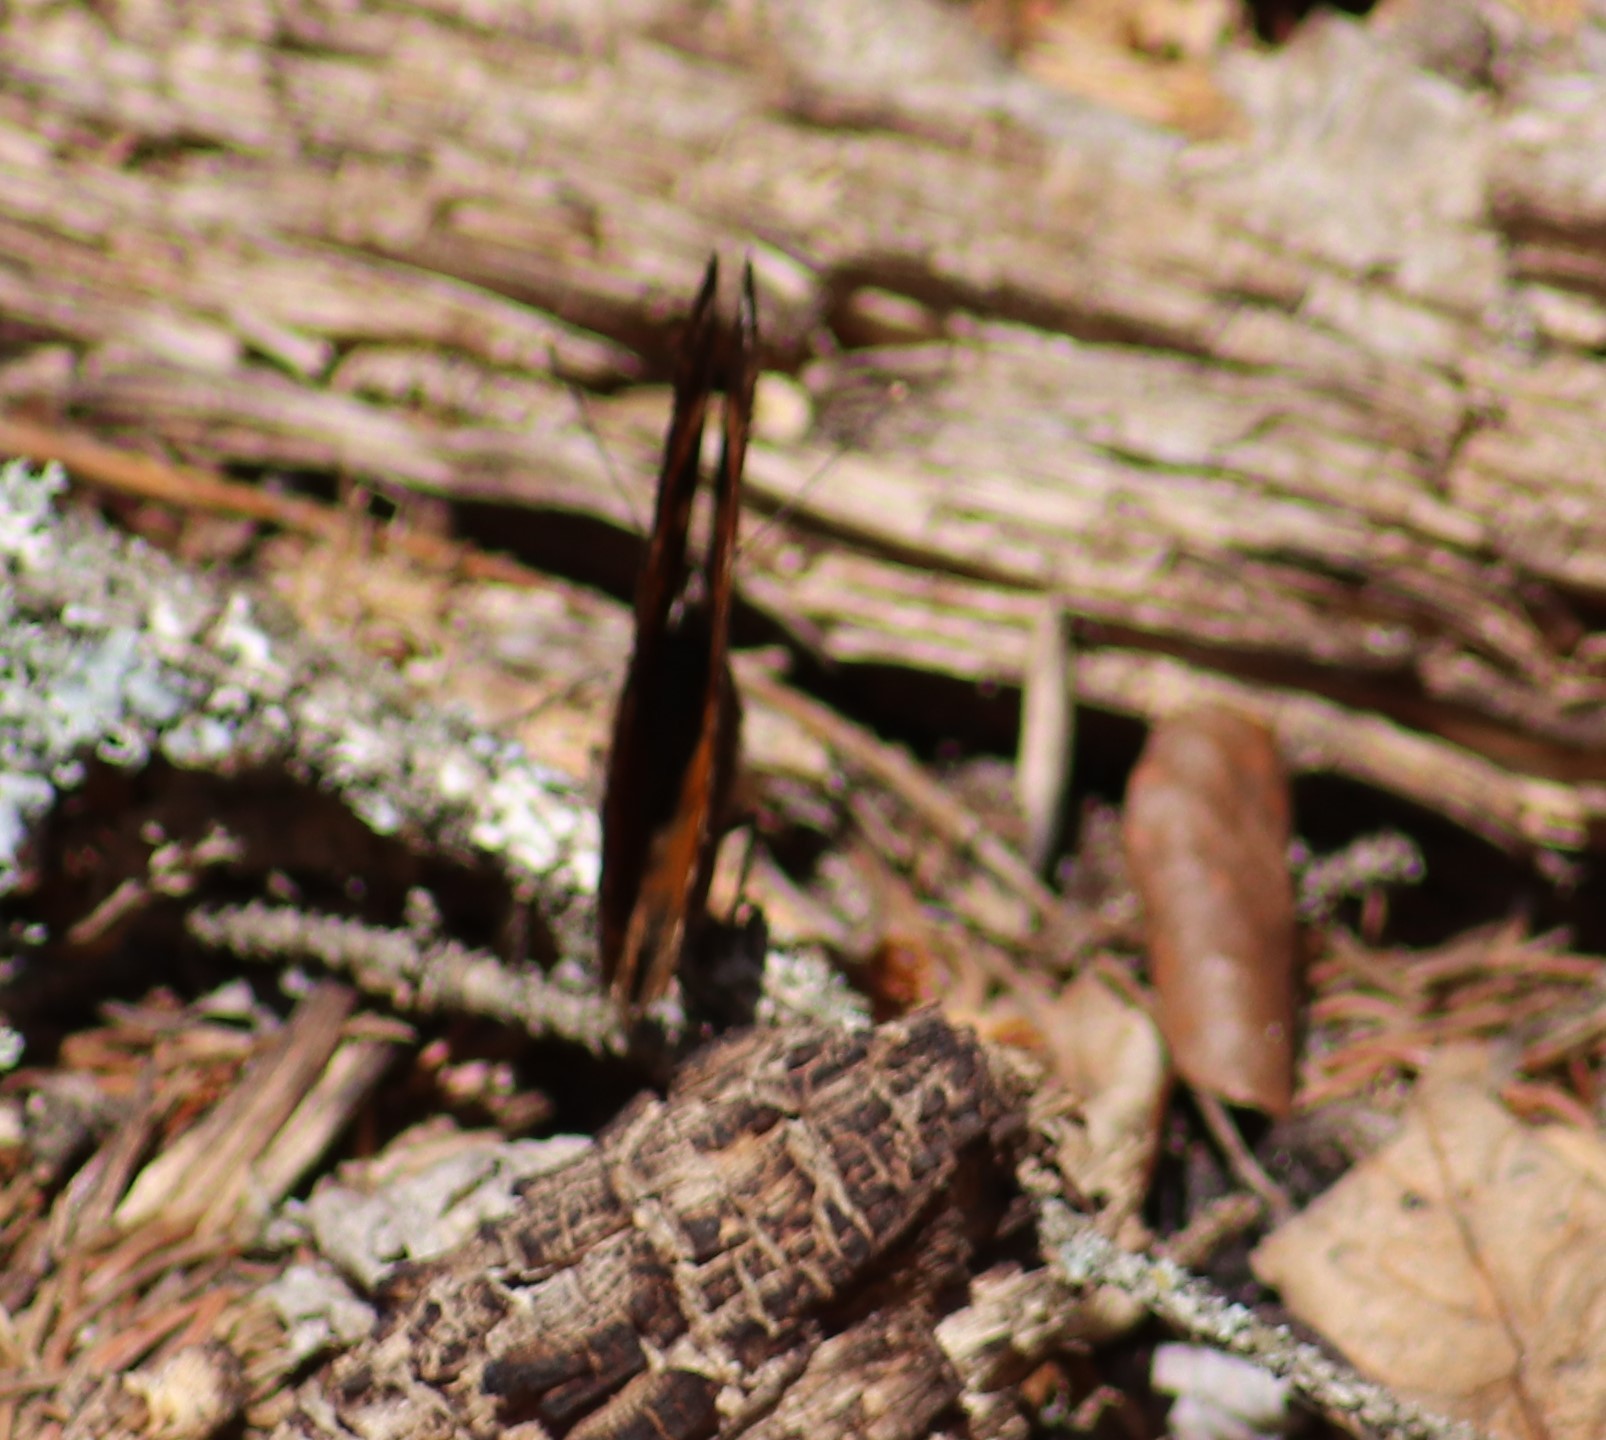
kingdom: Animalia
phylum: Arthropoda
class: Insecta
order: Lepidoptera
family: Nymphalidae
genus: Polygonia
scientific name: Polygonia vaualbum
